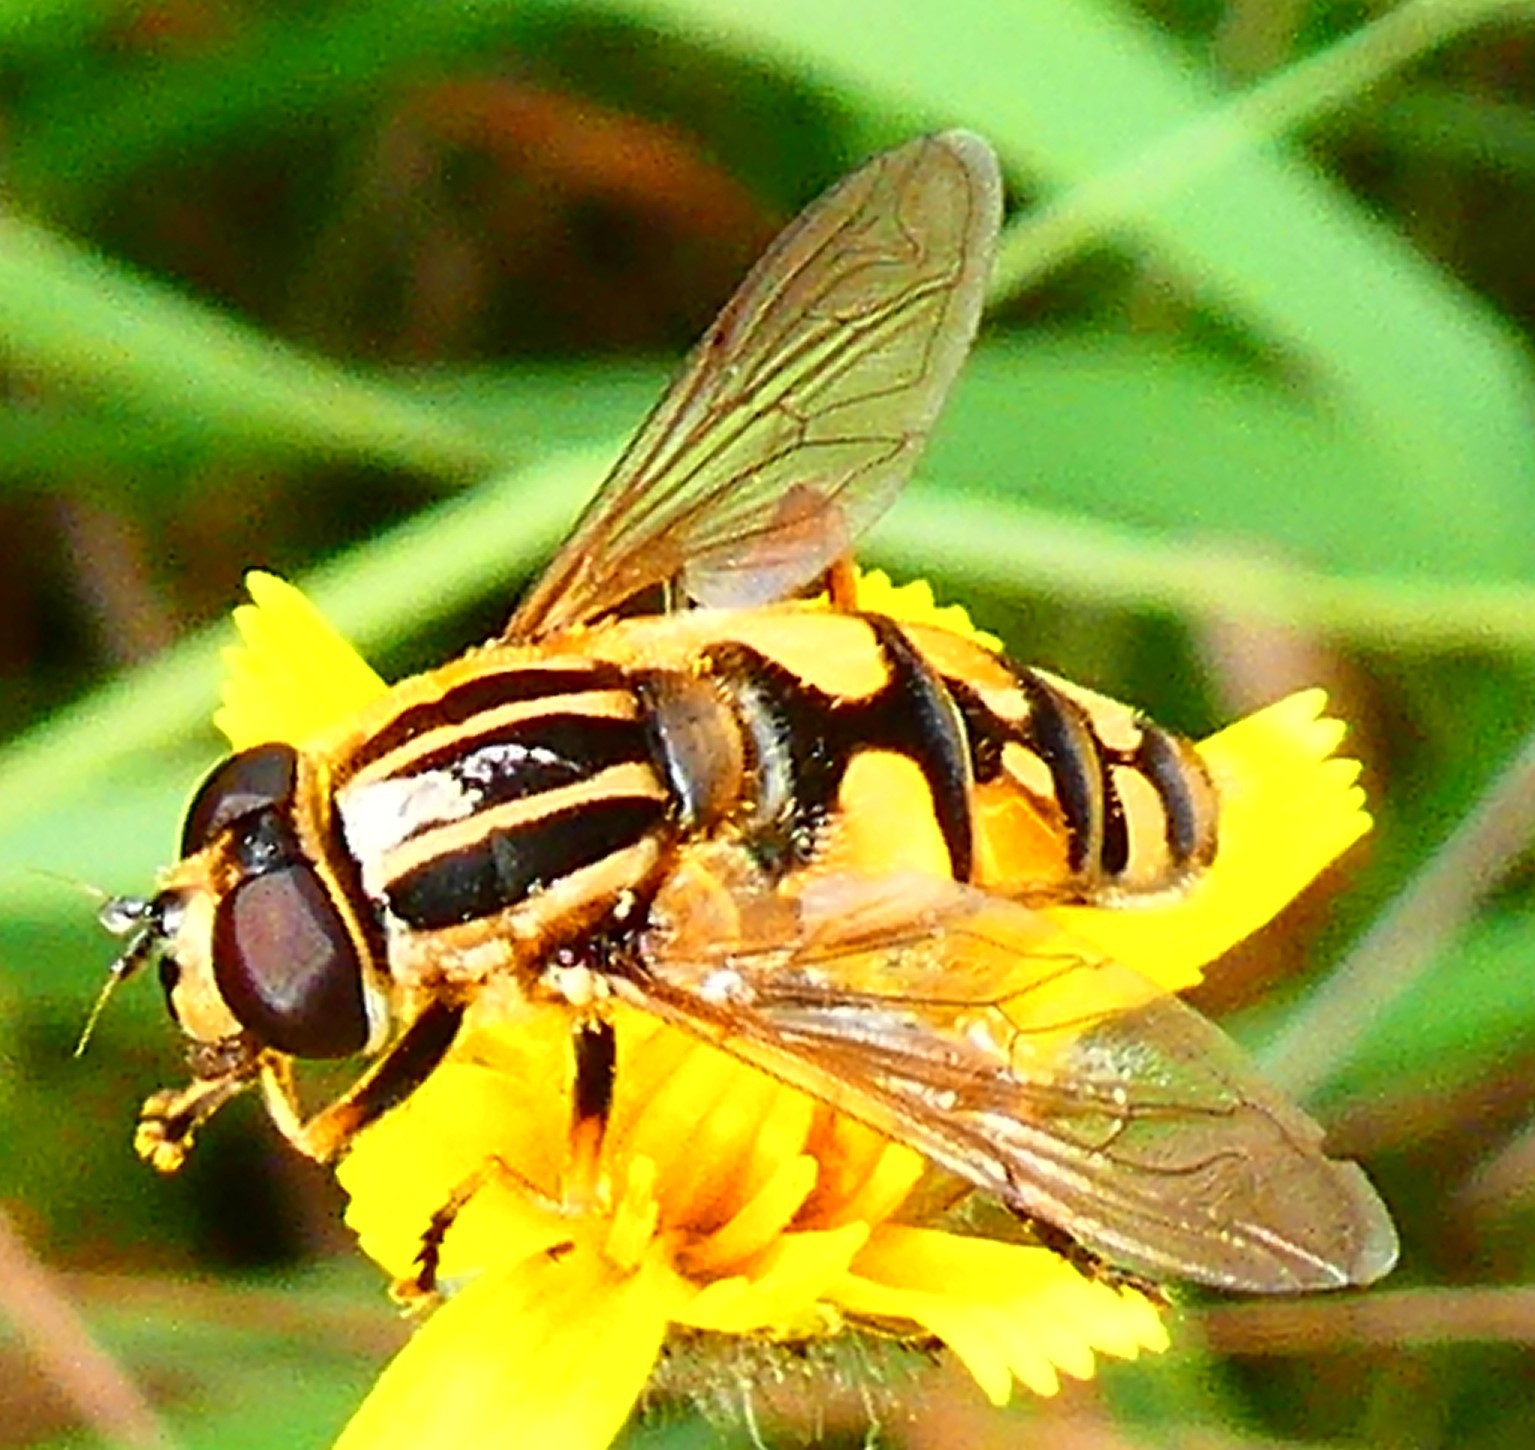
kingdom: Animalia
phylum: Arthropoda
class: Insecta
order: Diptera
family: Syrphidae
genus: Helophilus
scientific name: Helophilus pendulus
